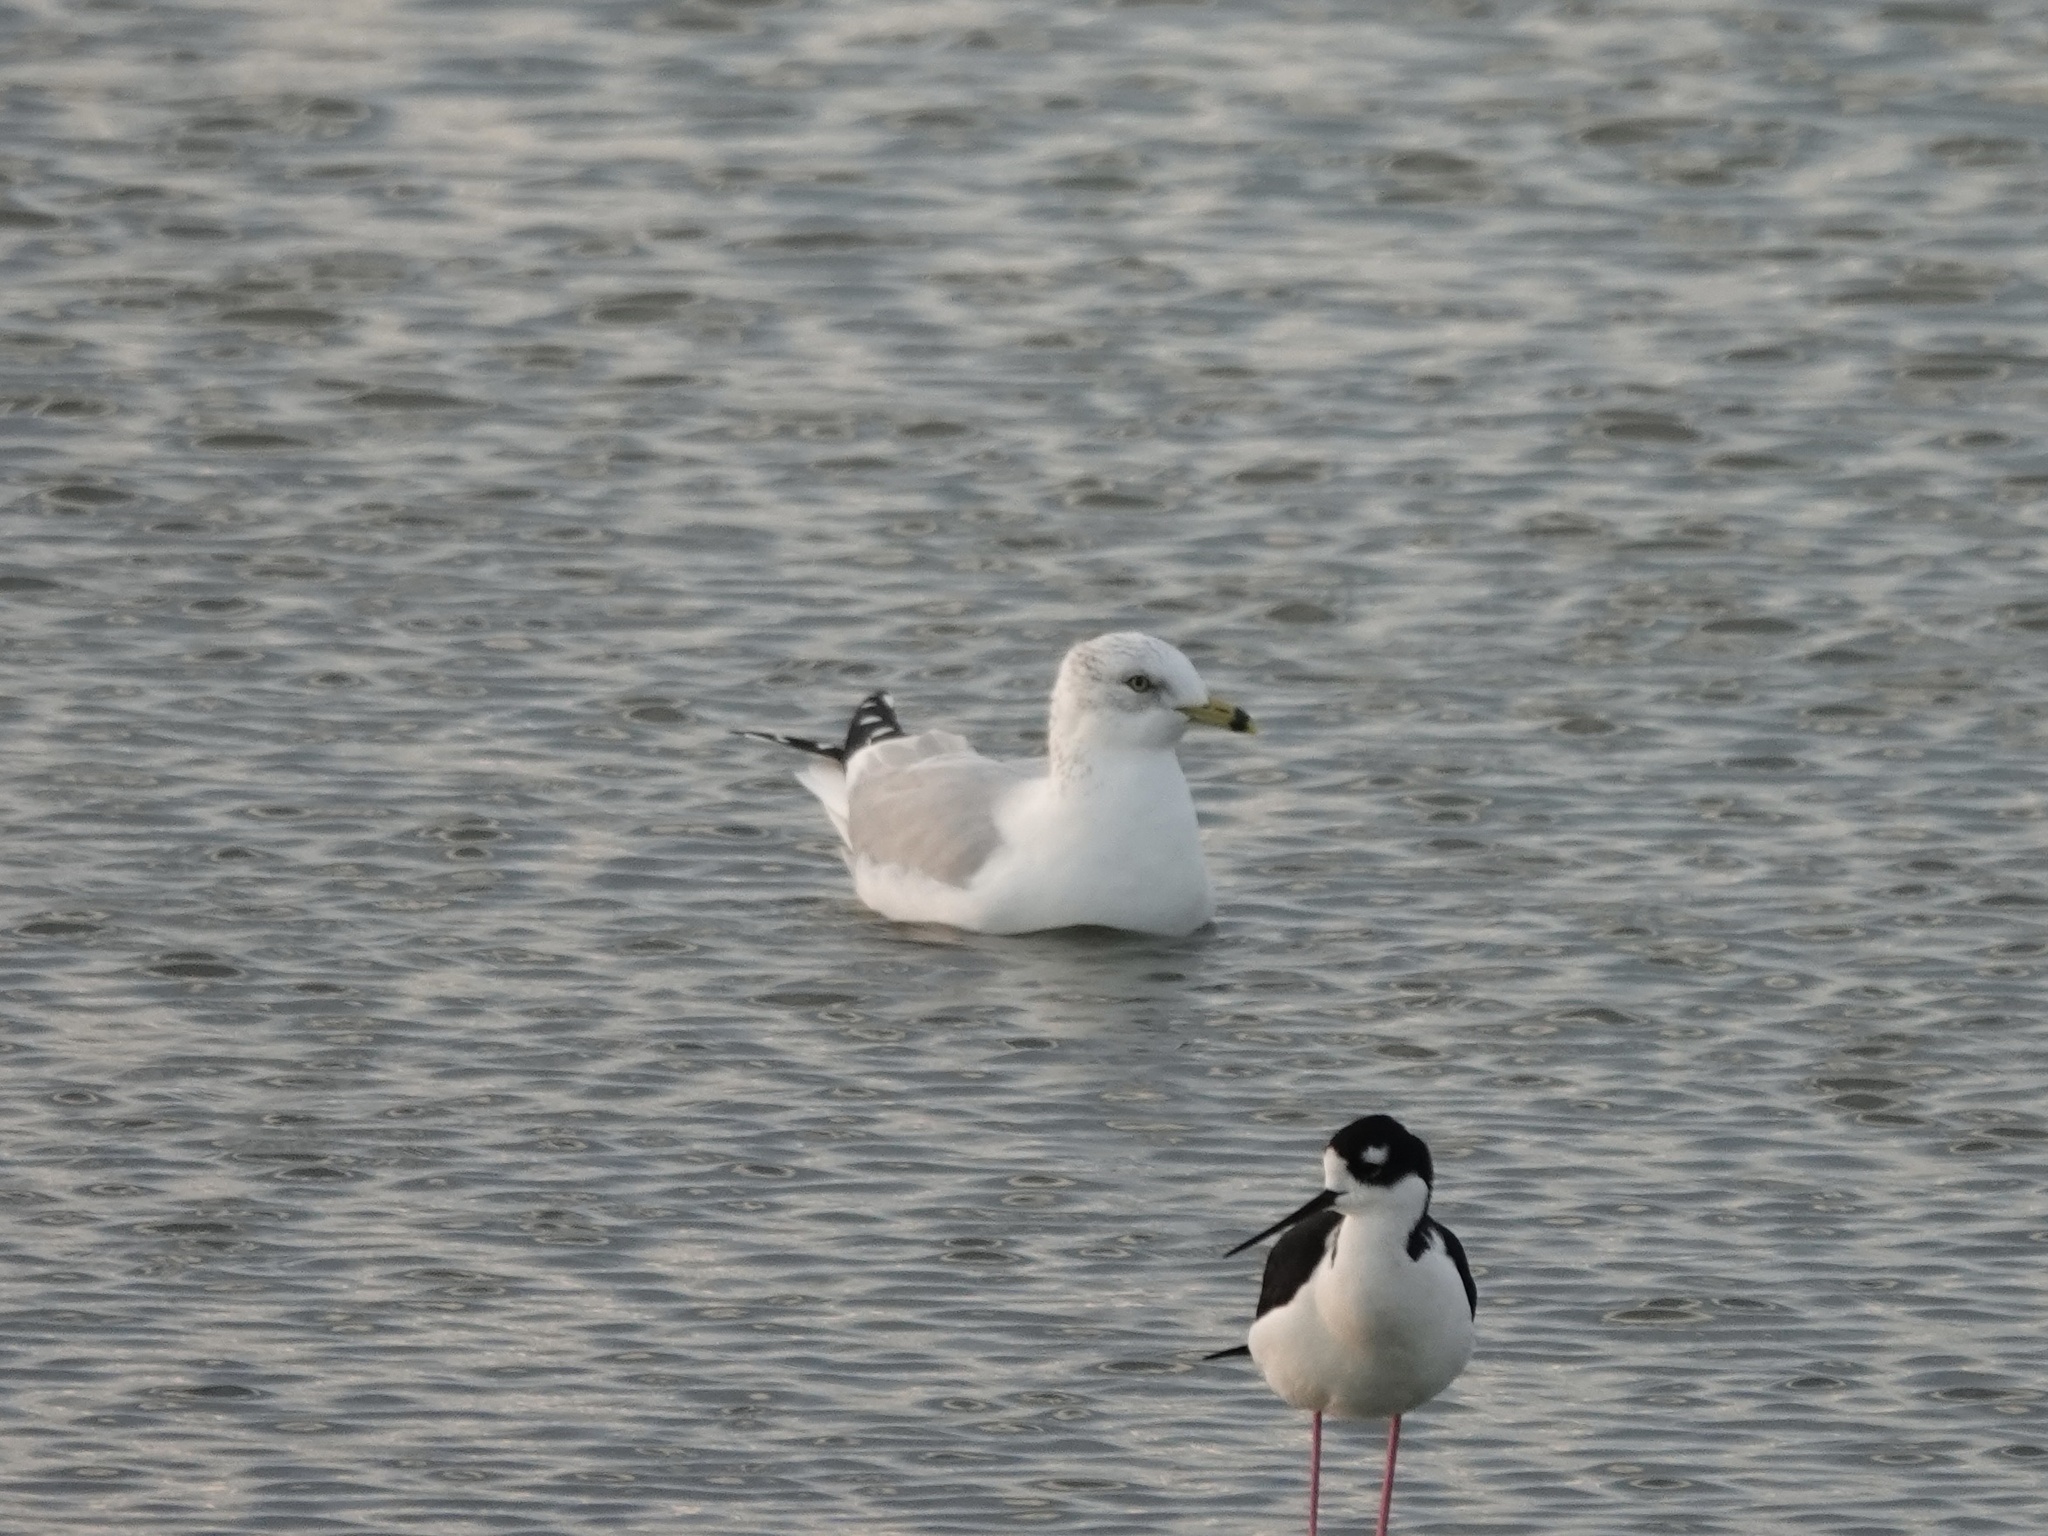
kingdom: Animalia
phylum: Chordata
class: Aves
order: Charadriiformes
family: Laridae
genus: Larus
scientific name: Larus delawarensis
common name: Ring-billed gull
